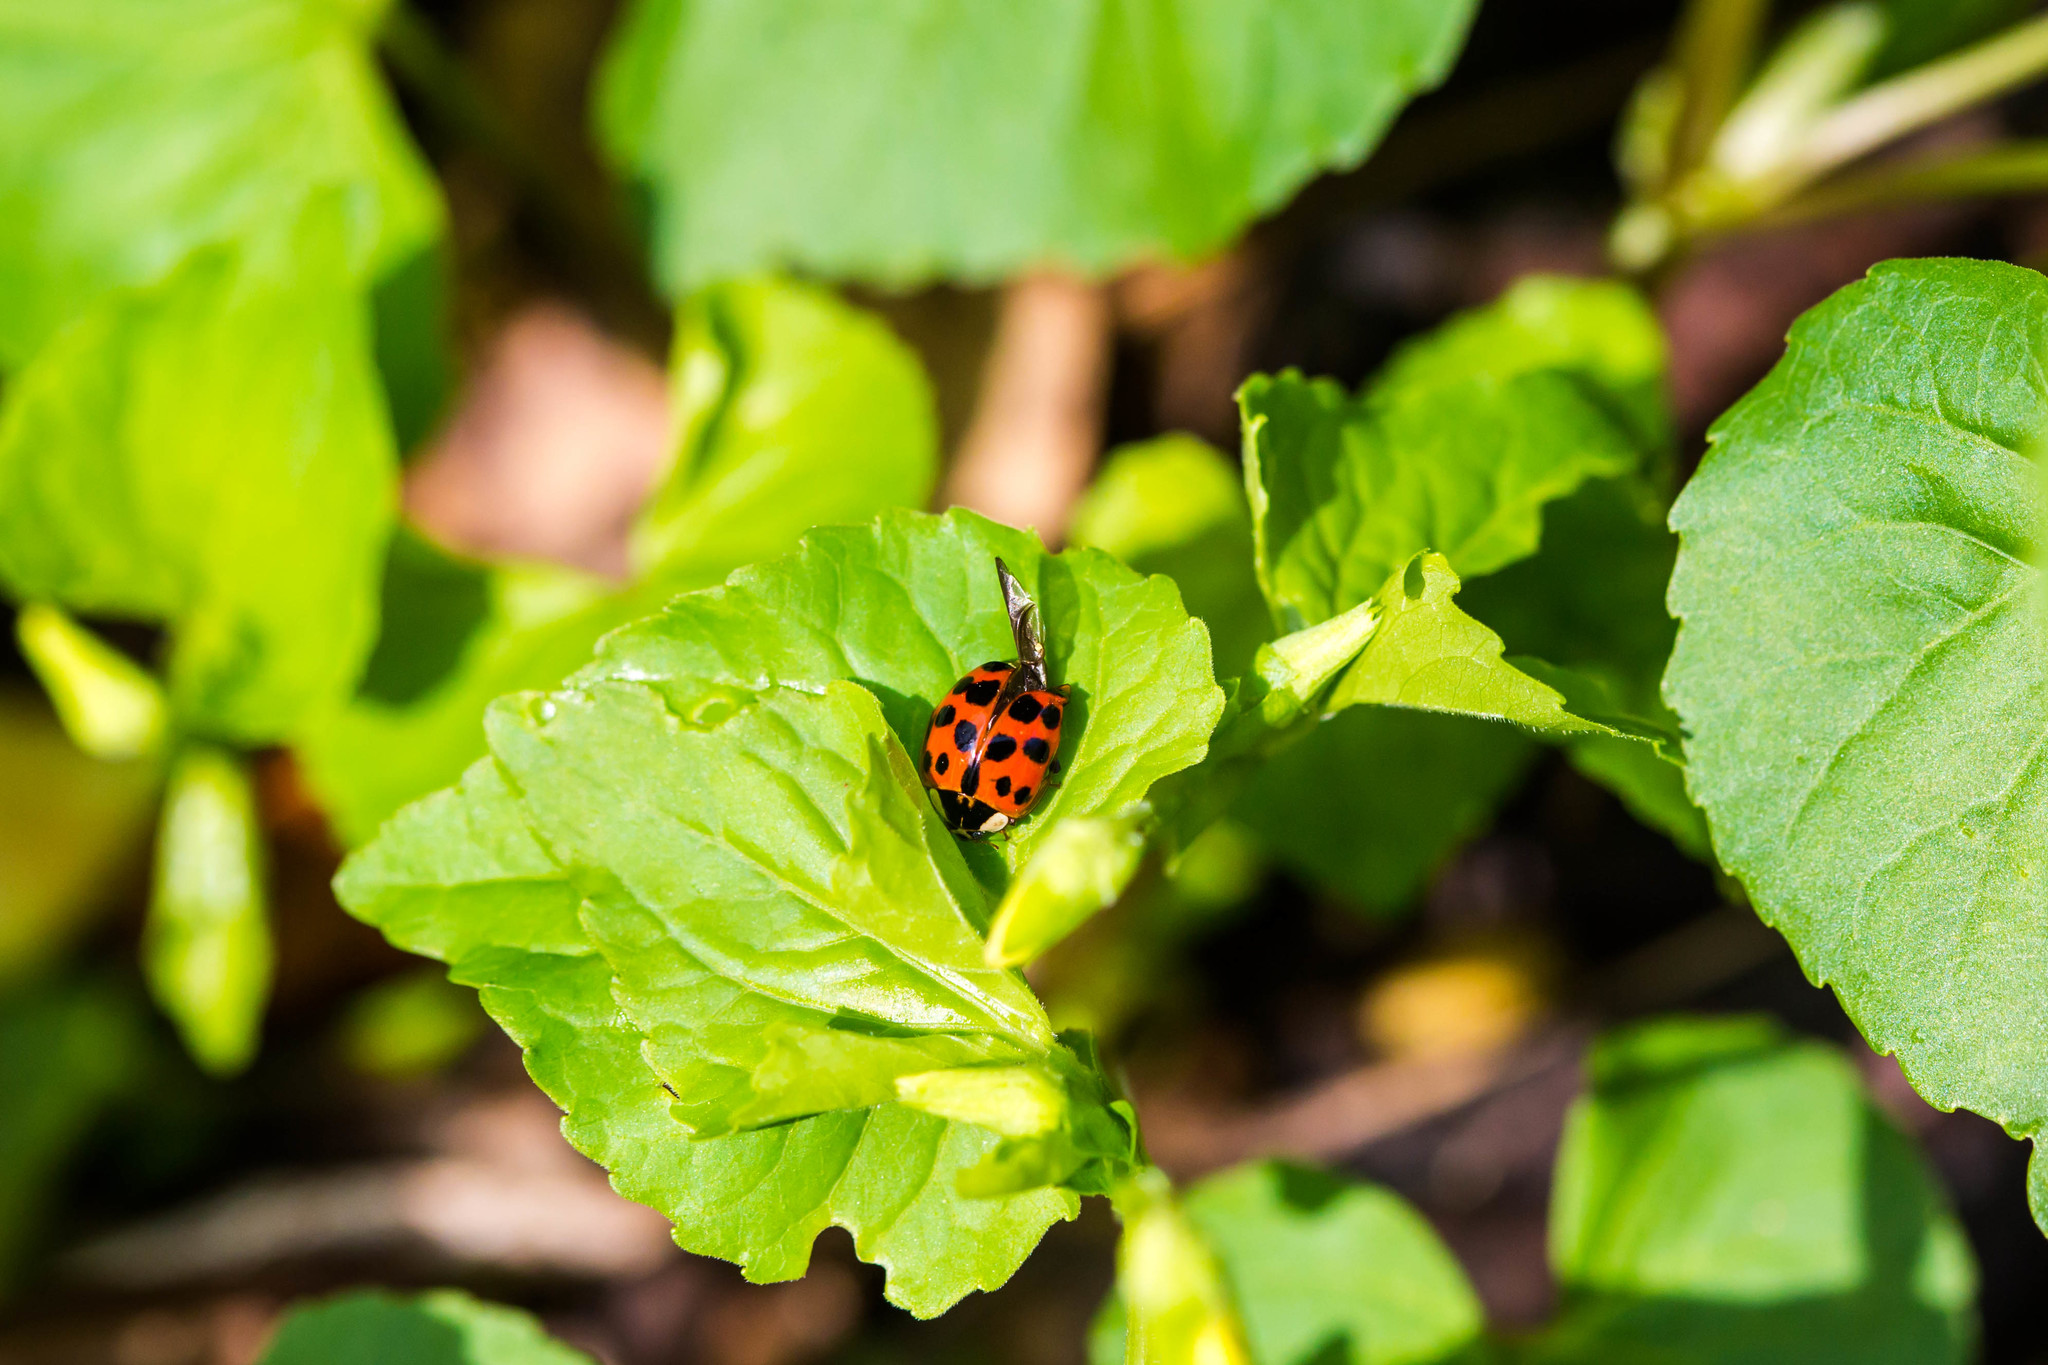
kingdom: Animalia
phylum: Arthropoda
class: Insecta
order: Coleoptera
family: Coccinellidae
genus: Harmonia
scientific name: Harmonia axyridis
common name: Harlequin ladybird
